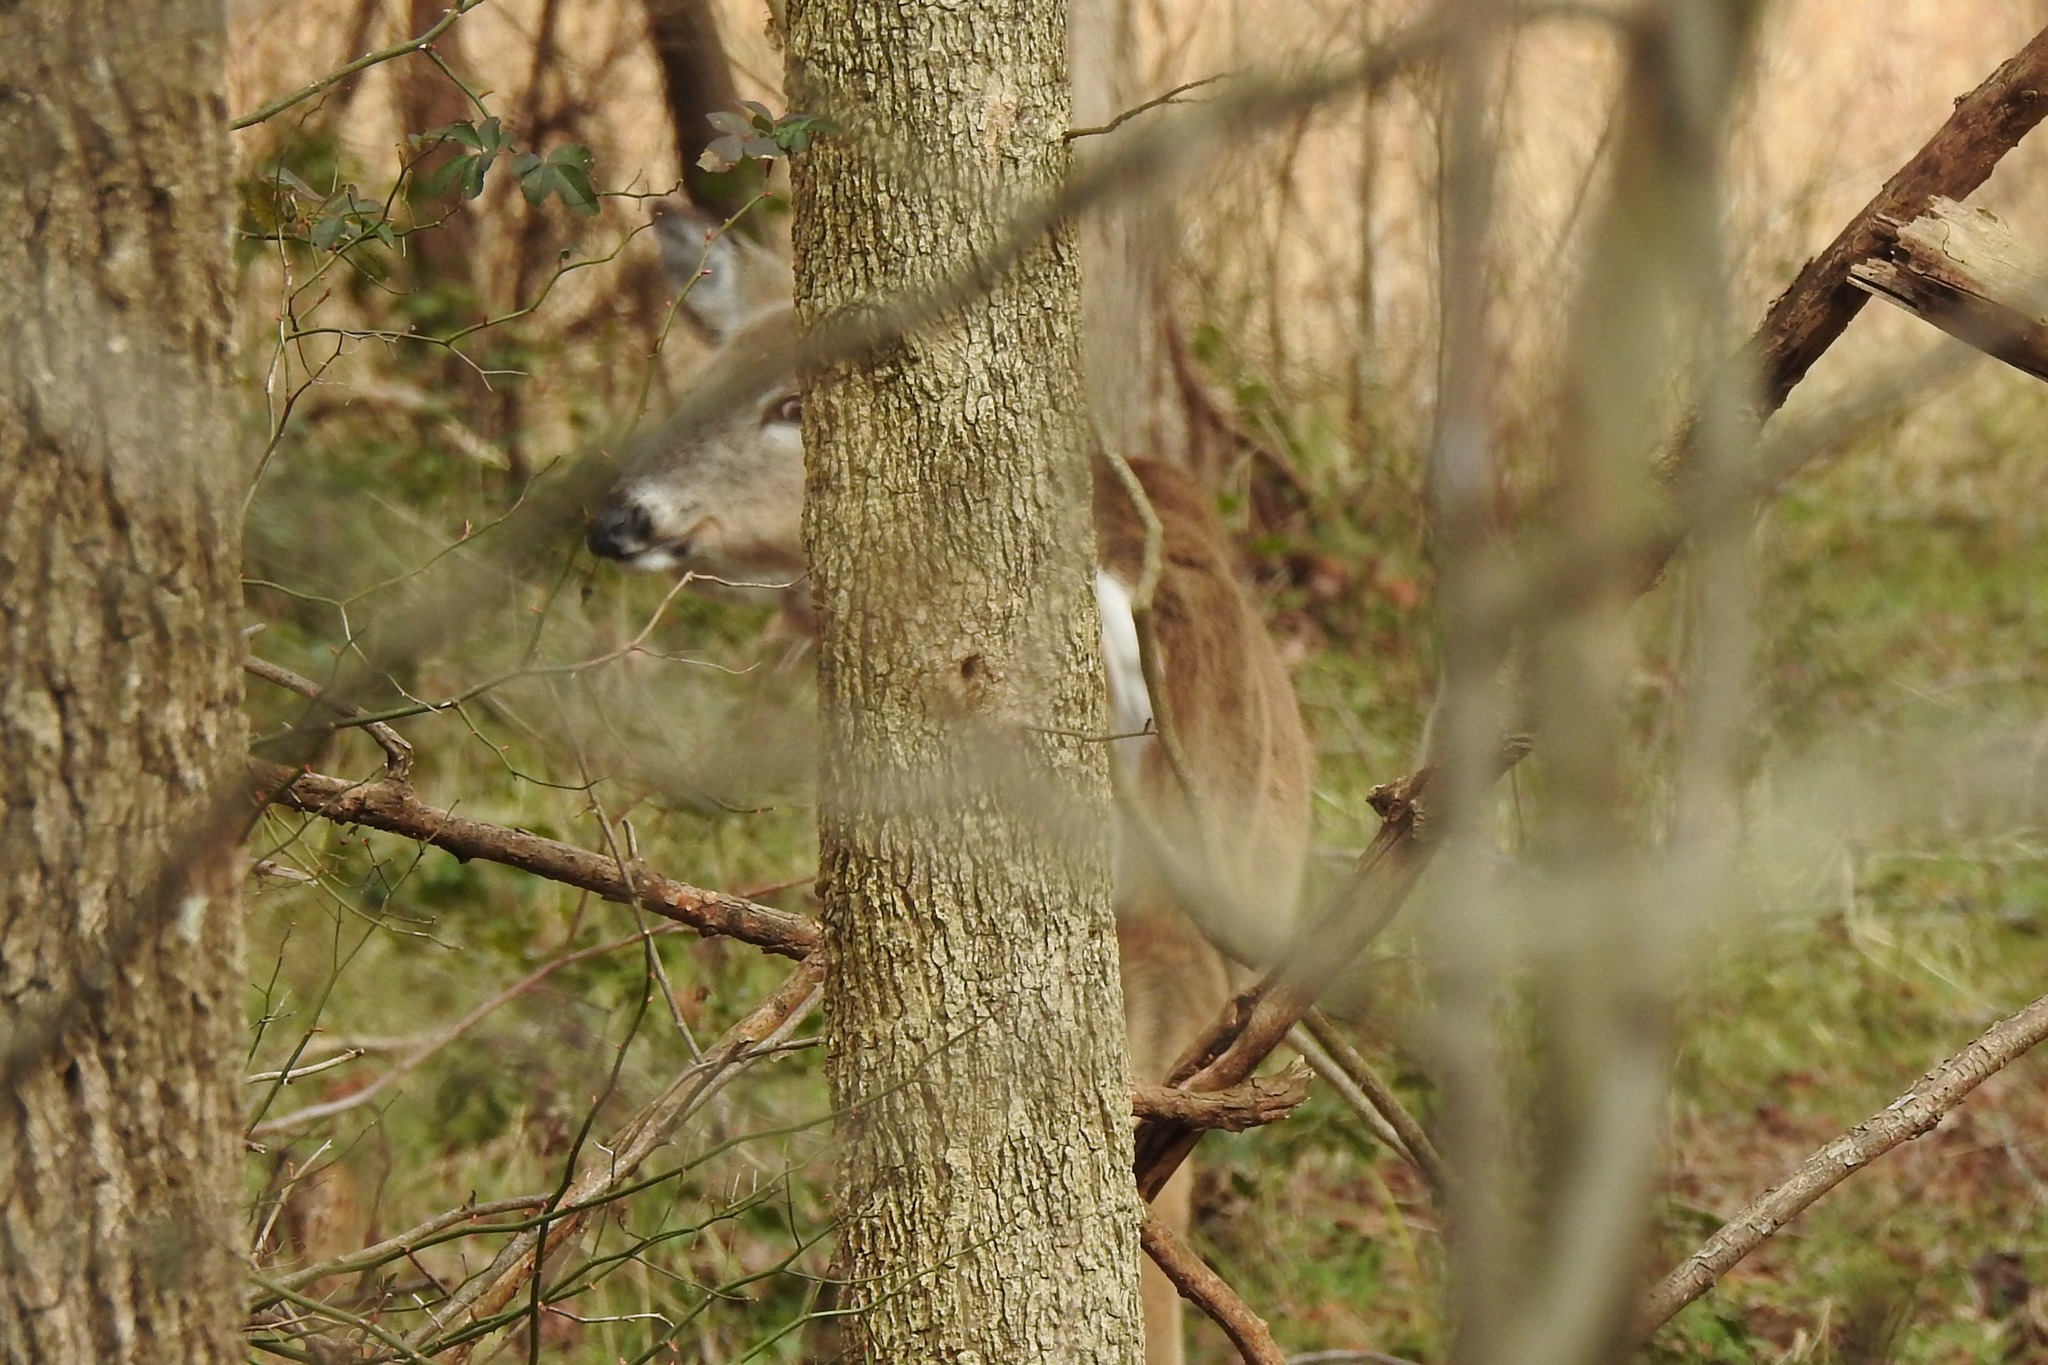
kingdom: Animalia
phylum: Chordata
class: Mammalia
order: Artiodactyla
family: Cervidae
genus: Odocoileus
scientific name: Odocoileus virginianus
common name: White-tailed deer
